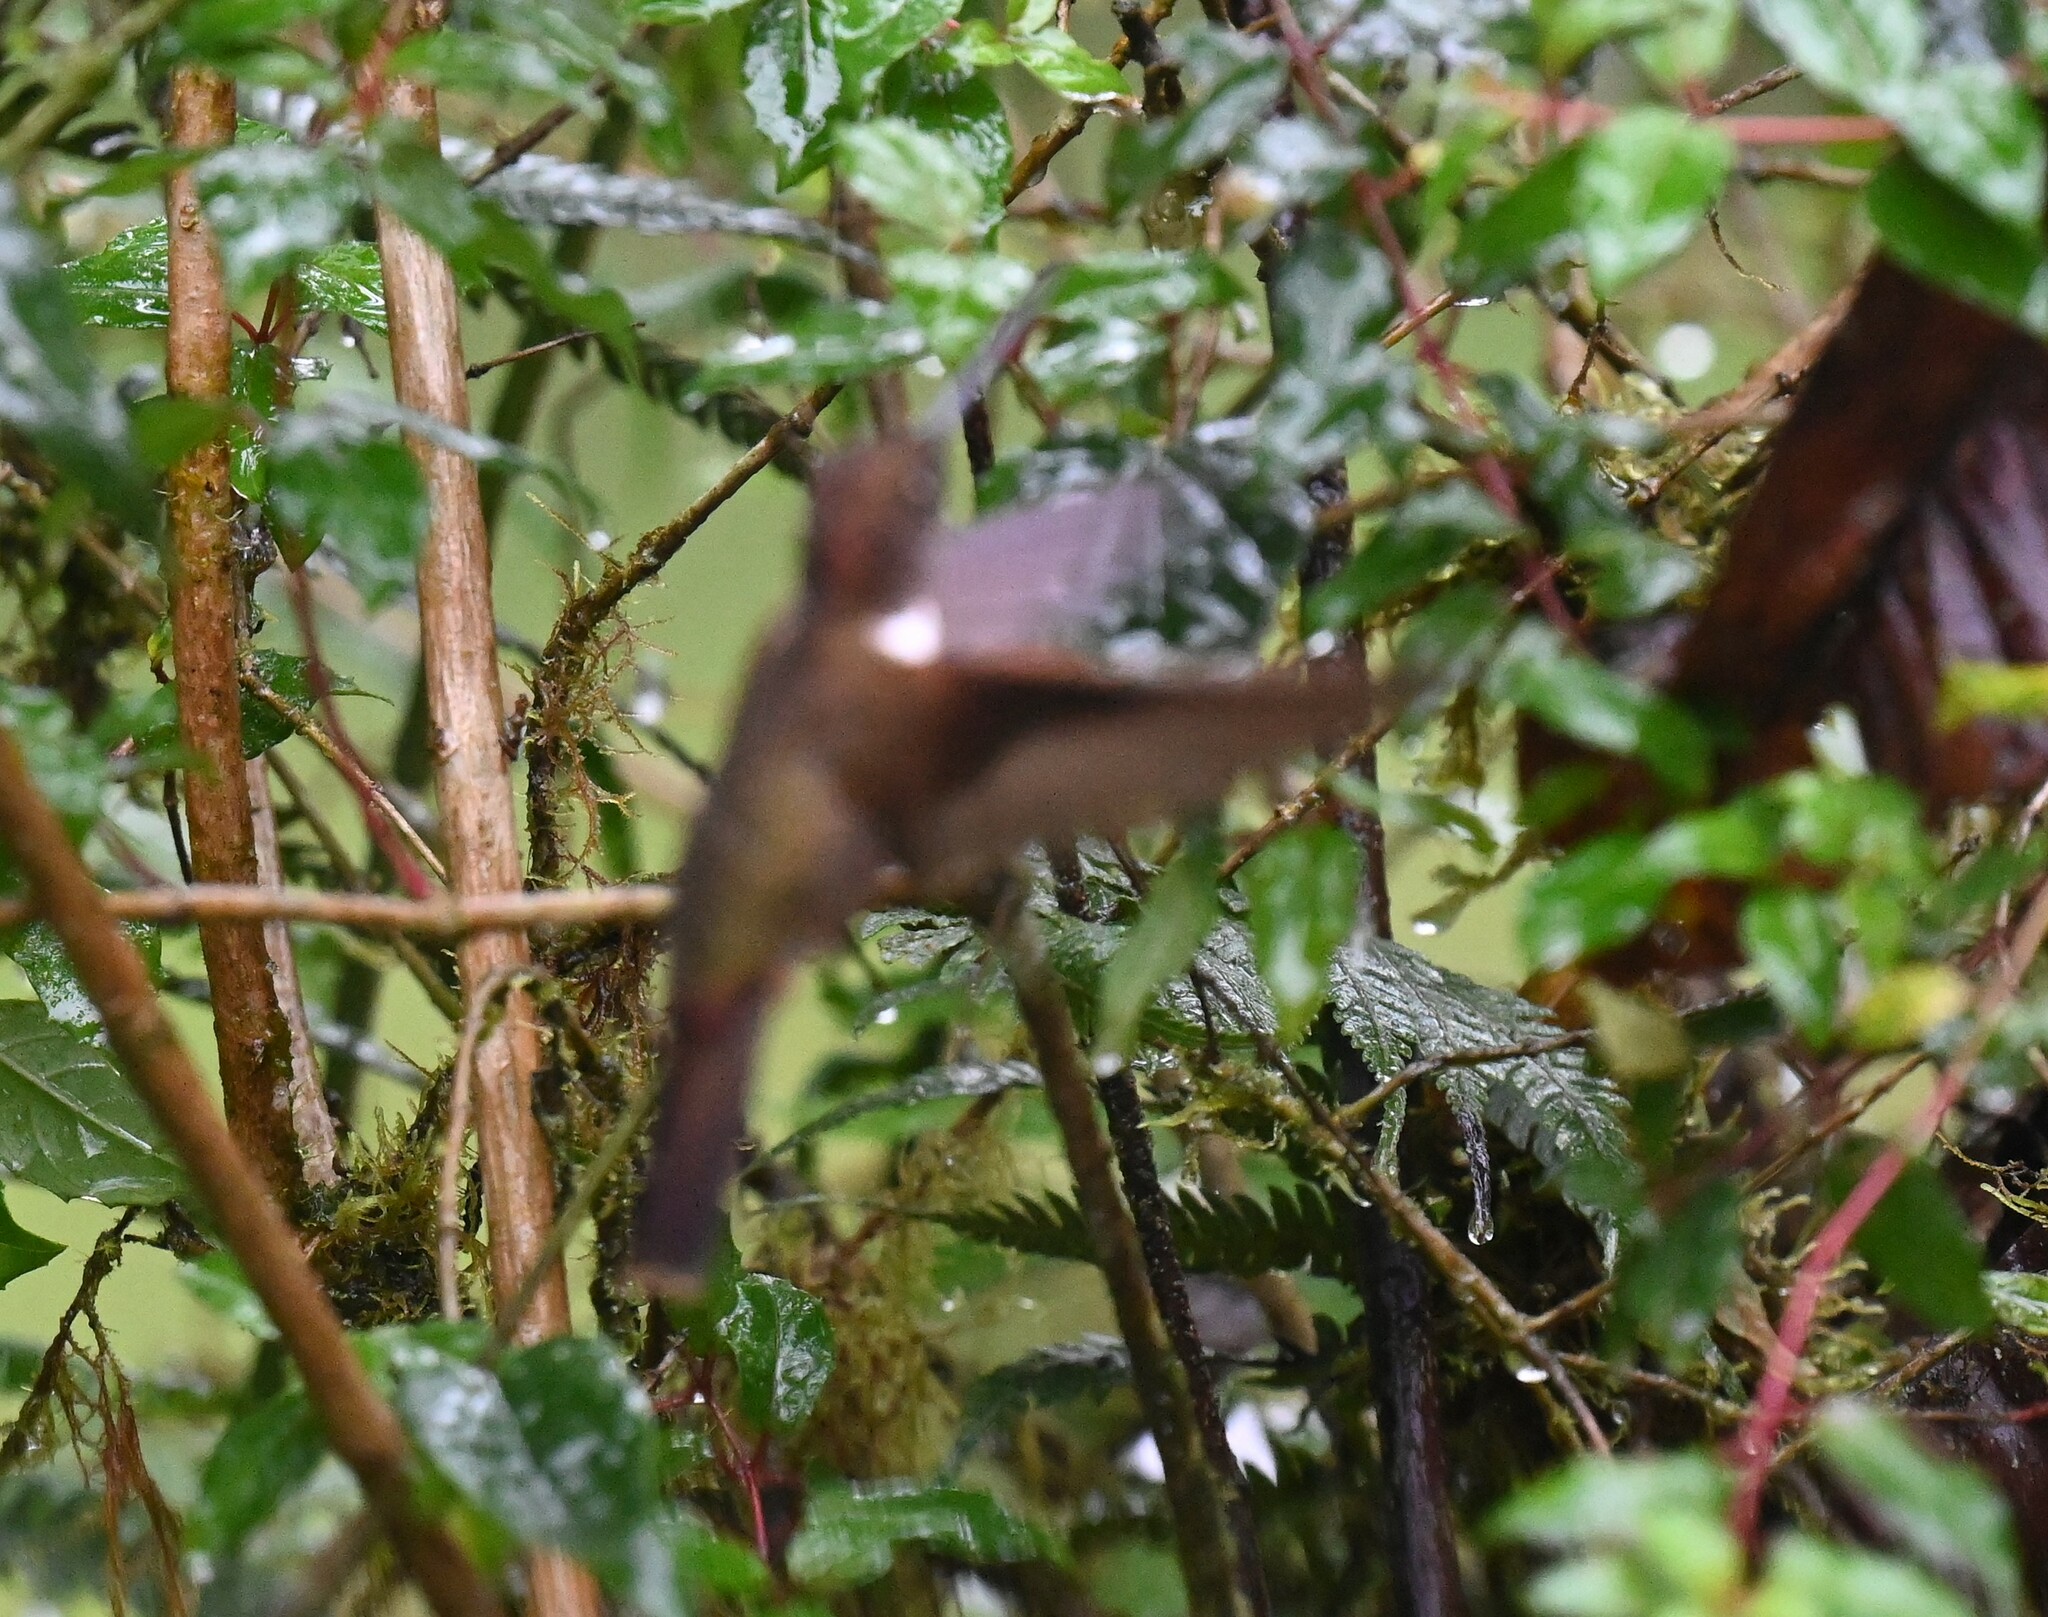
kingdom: Animalia
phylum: Chordata
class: Aves
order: Apodiformes
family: Trochilidae
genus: Coeligena
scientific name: Coeligena wilsoni
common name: Brown inca
